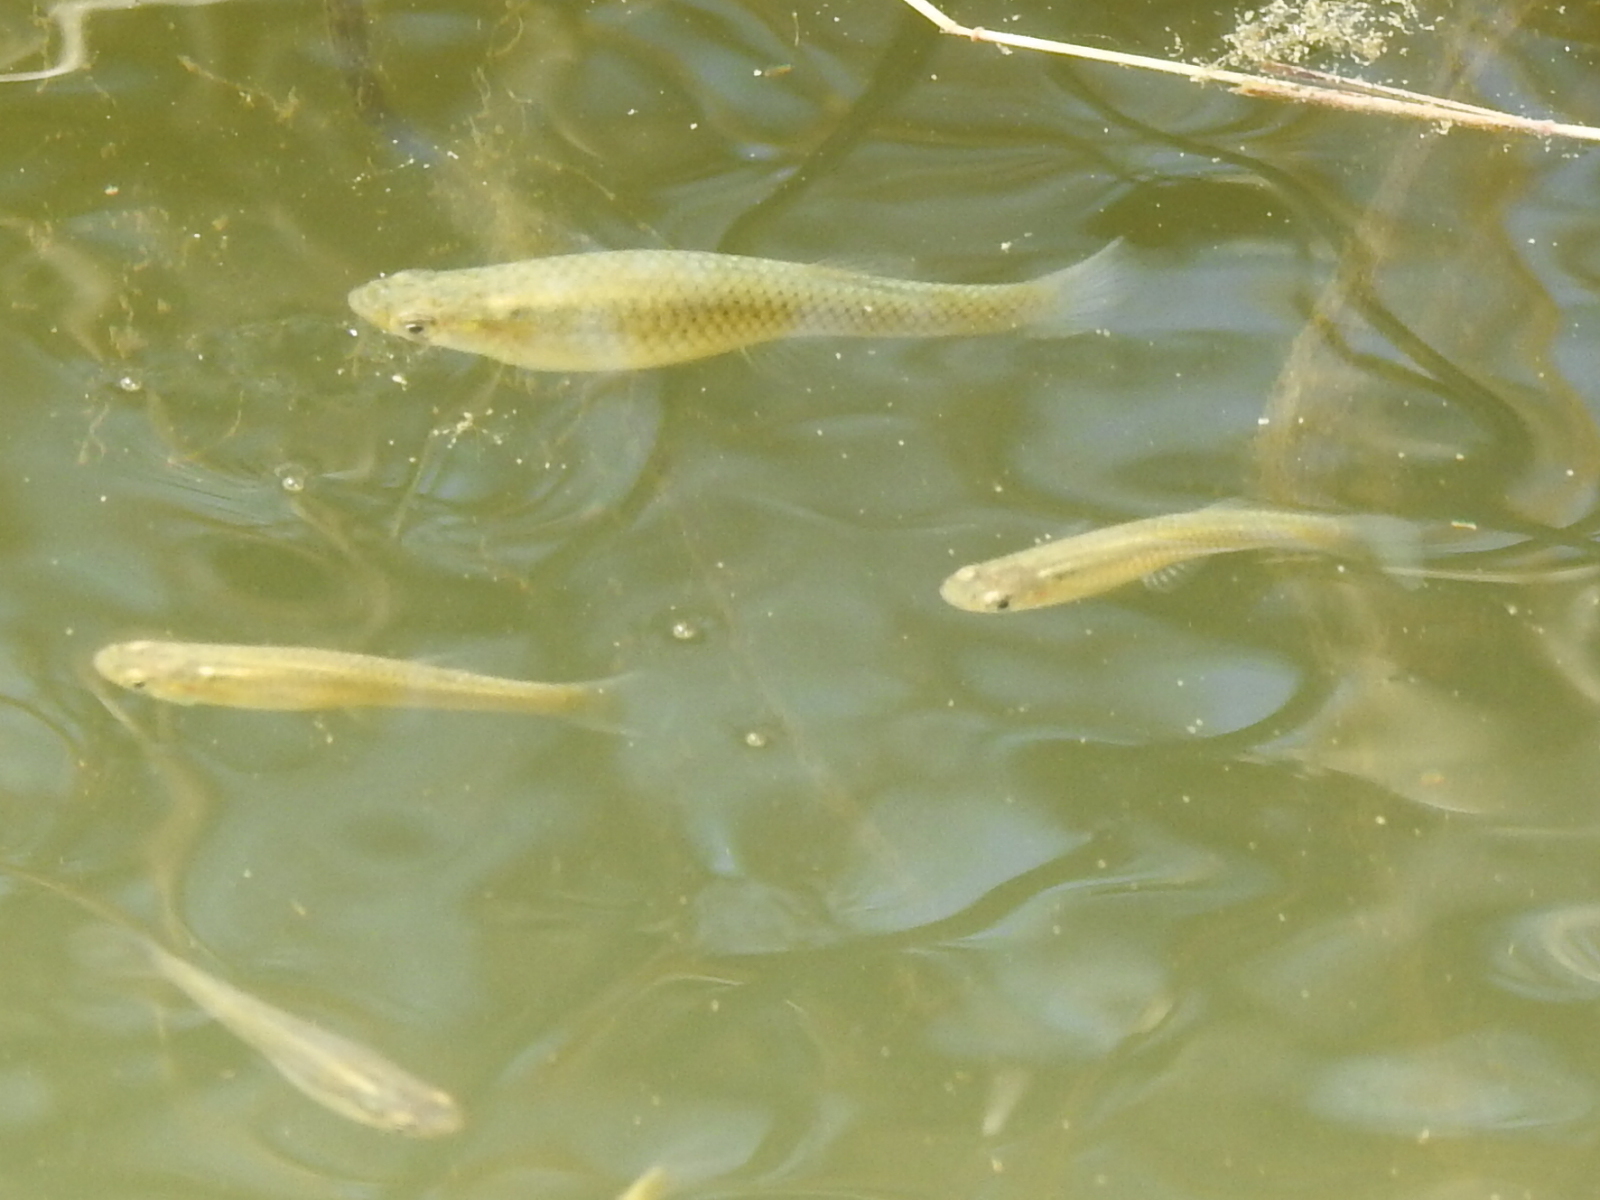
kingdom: Animalia
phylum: Chordata
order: Cyprinodontiformes
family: Poeciliidae
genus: Gambusia
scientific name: Gambusia affinis
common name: Mosquitofish
